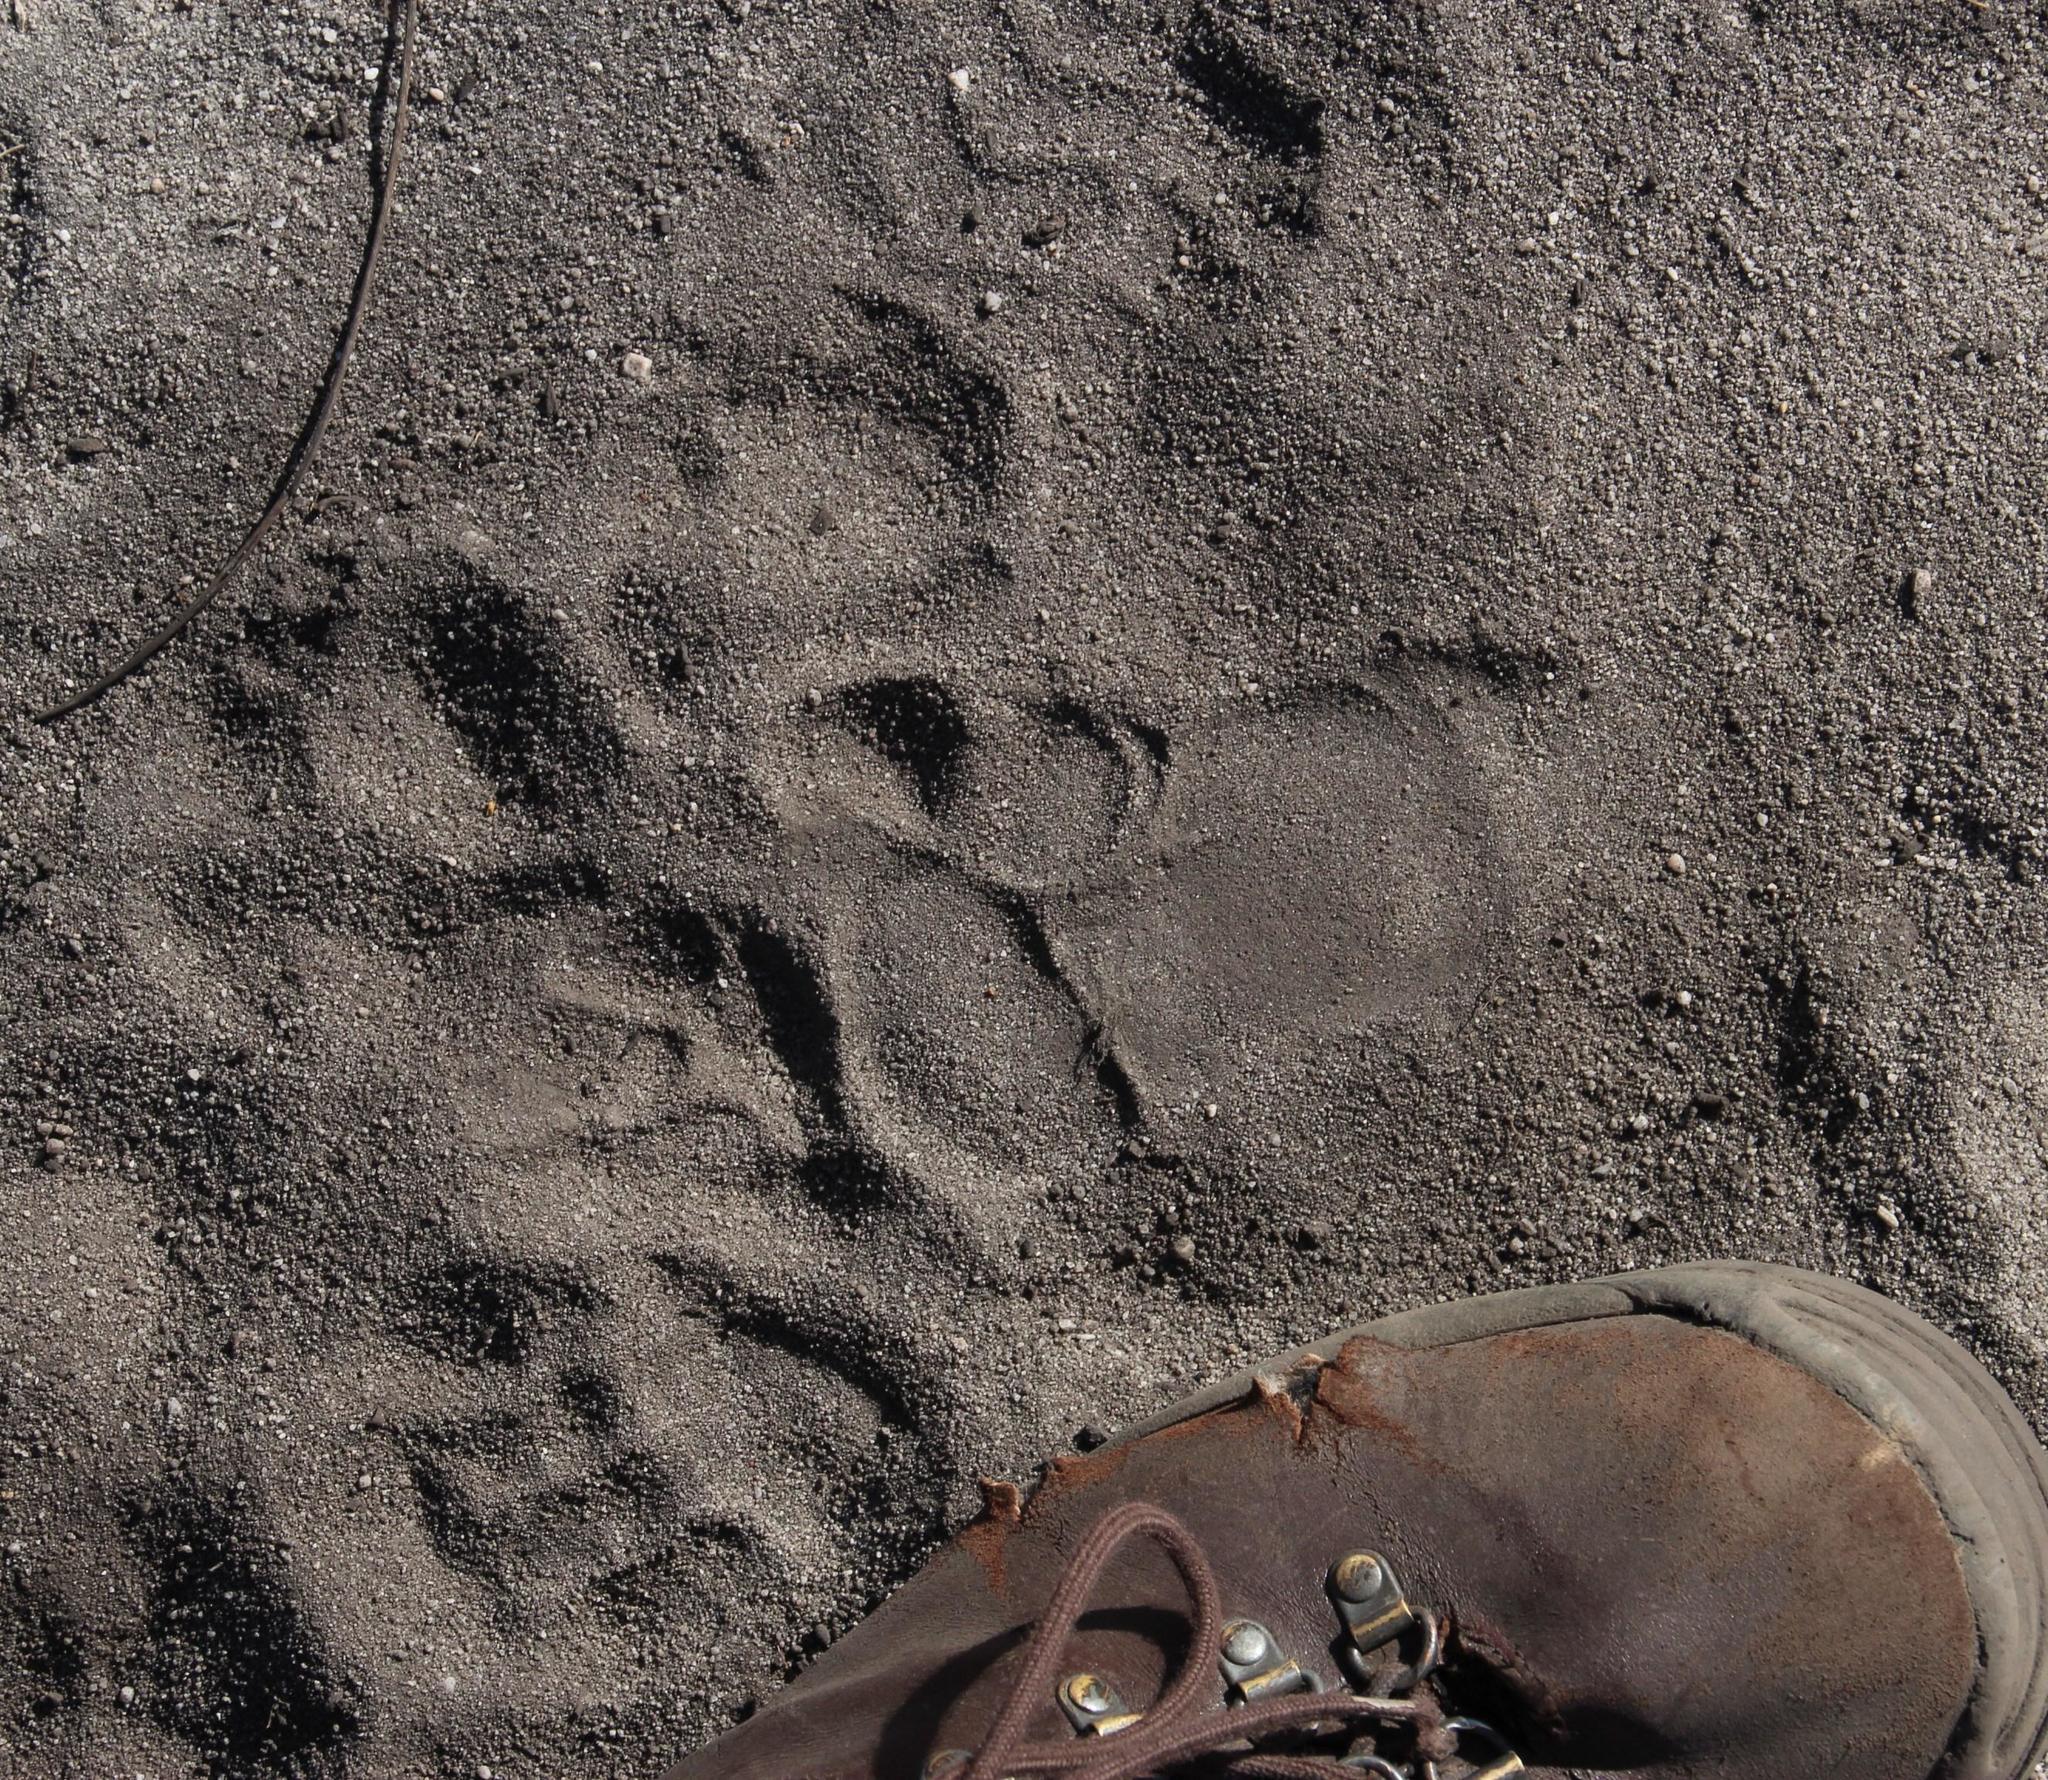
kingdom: Animalia
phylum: Chordata
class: Mammalia
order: Primates
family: Cercopithecidae
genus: Papio
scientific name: Papio ursinus
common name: Chacma baboon
